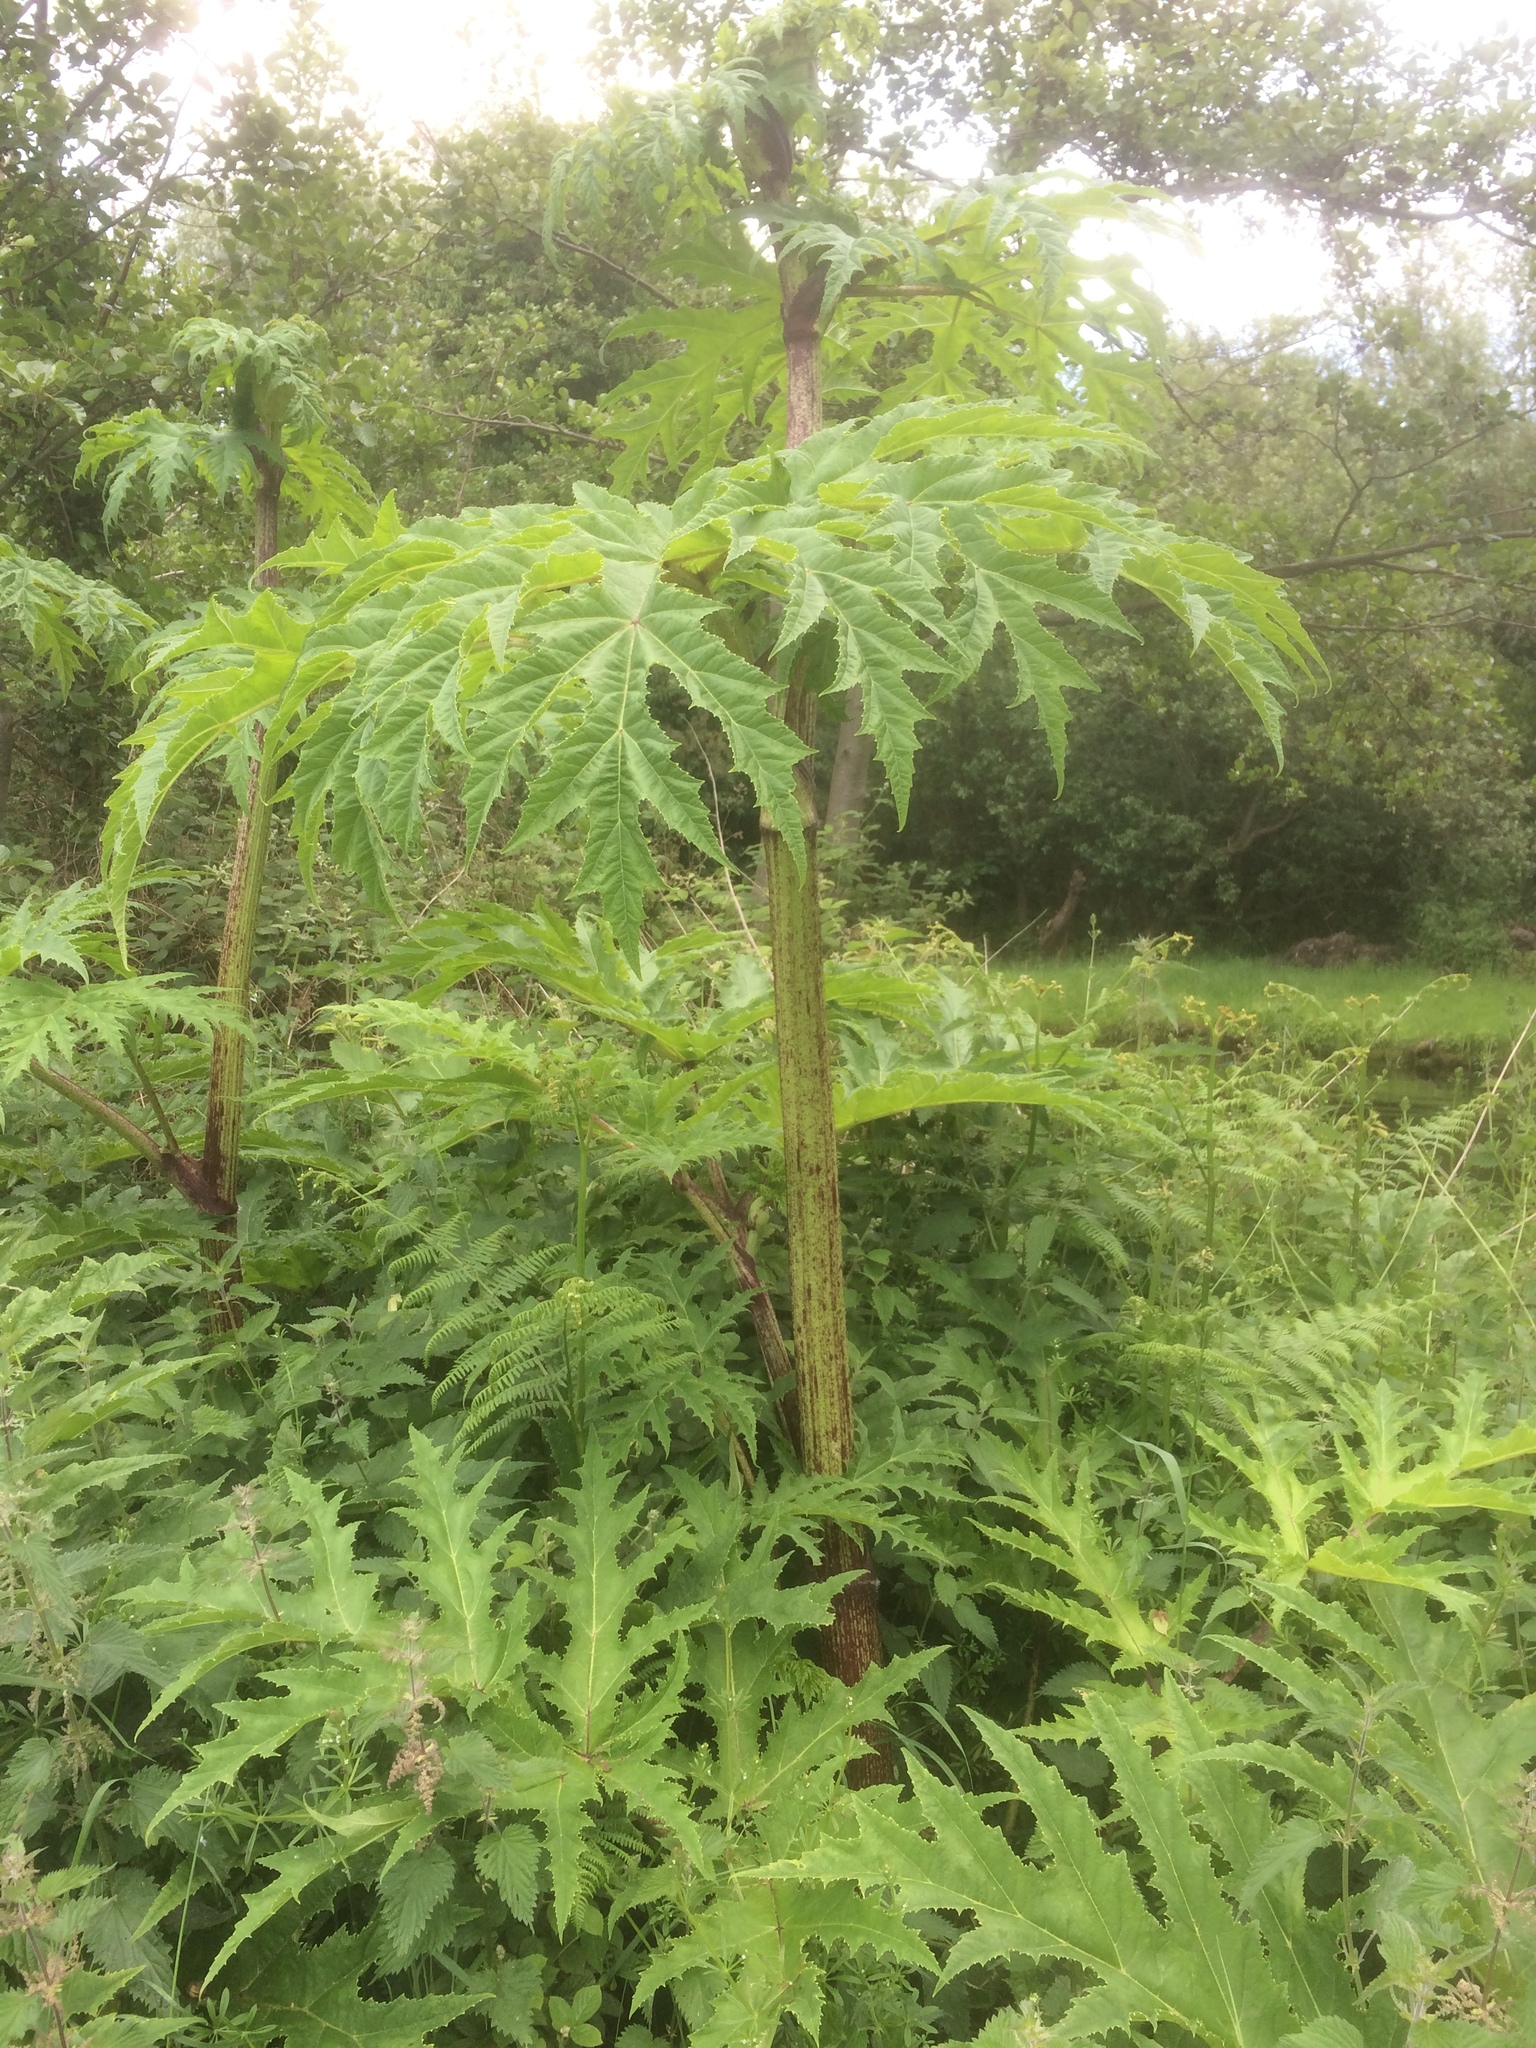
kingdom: Plantae
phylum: Tracheophyta
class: Magnoliopsida
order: Apiales
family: Apiaceae
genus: Heracleum
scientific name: Heracleum mantegazzianum
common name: Giant hogweed
